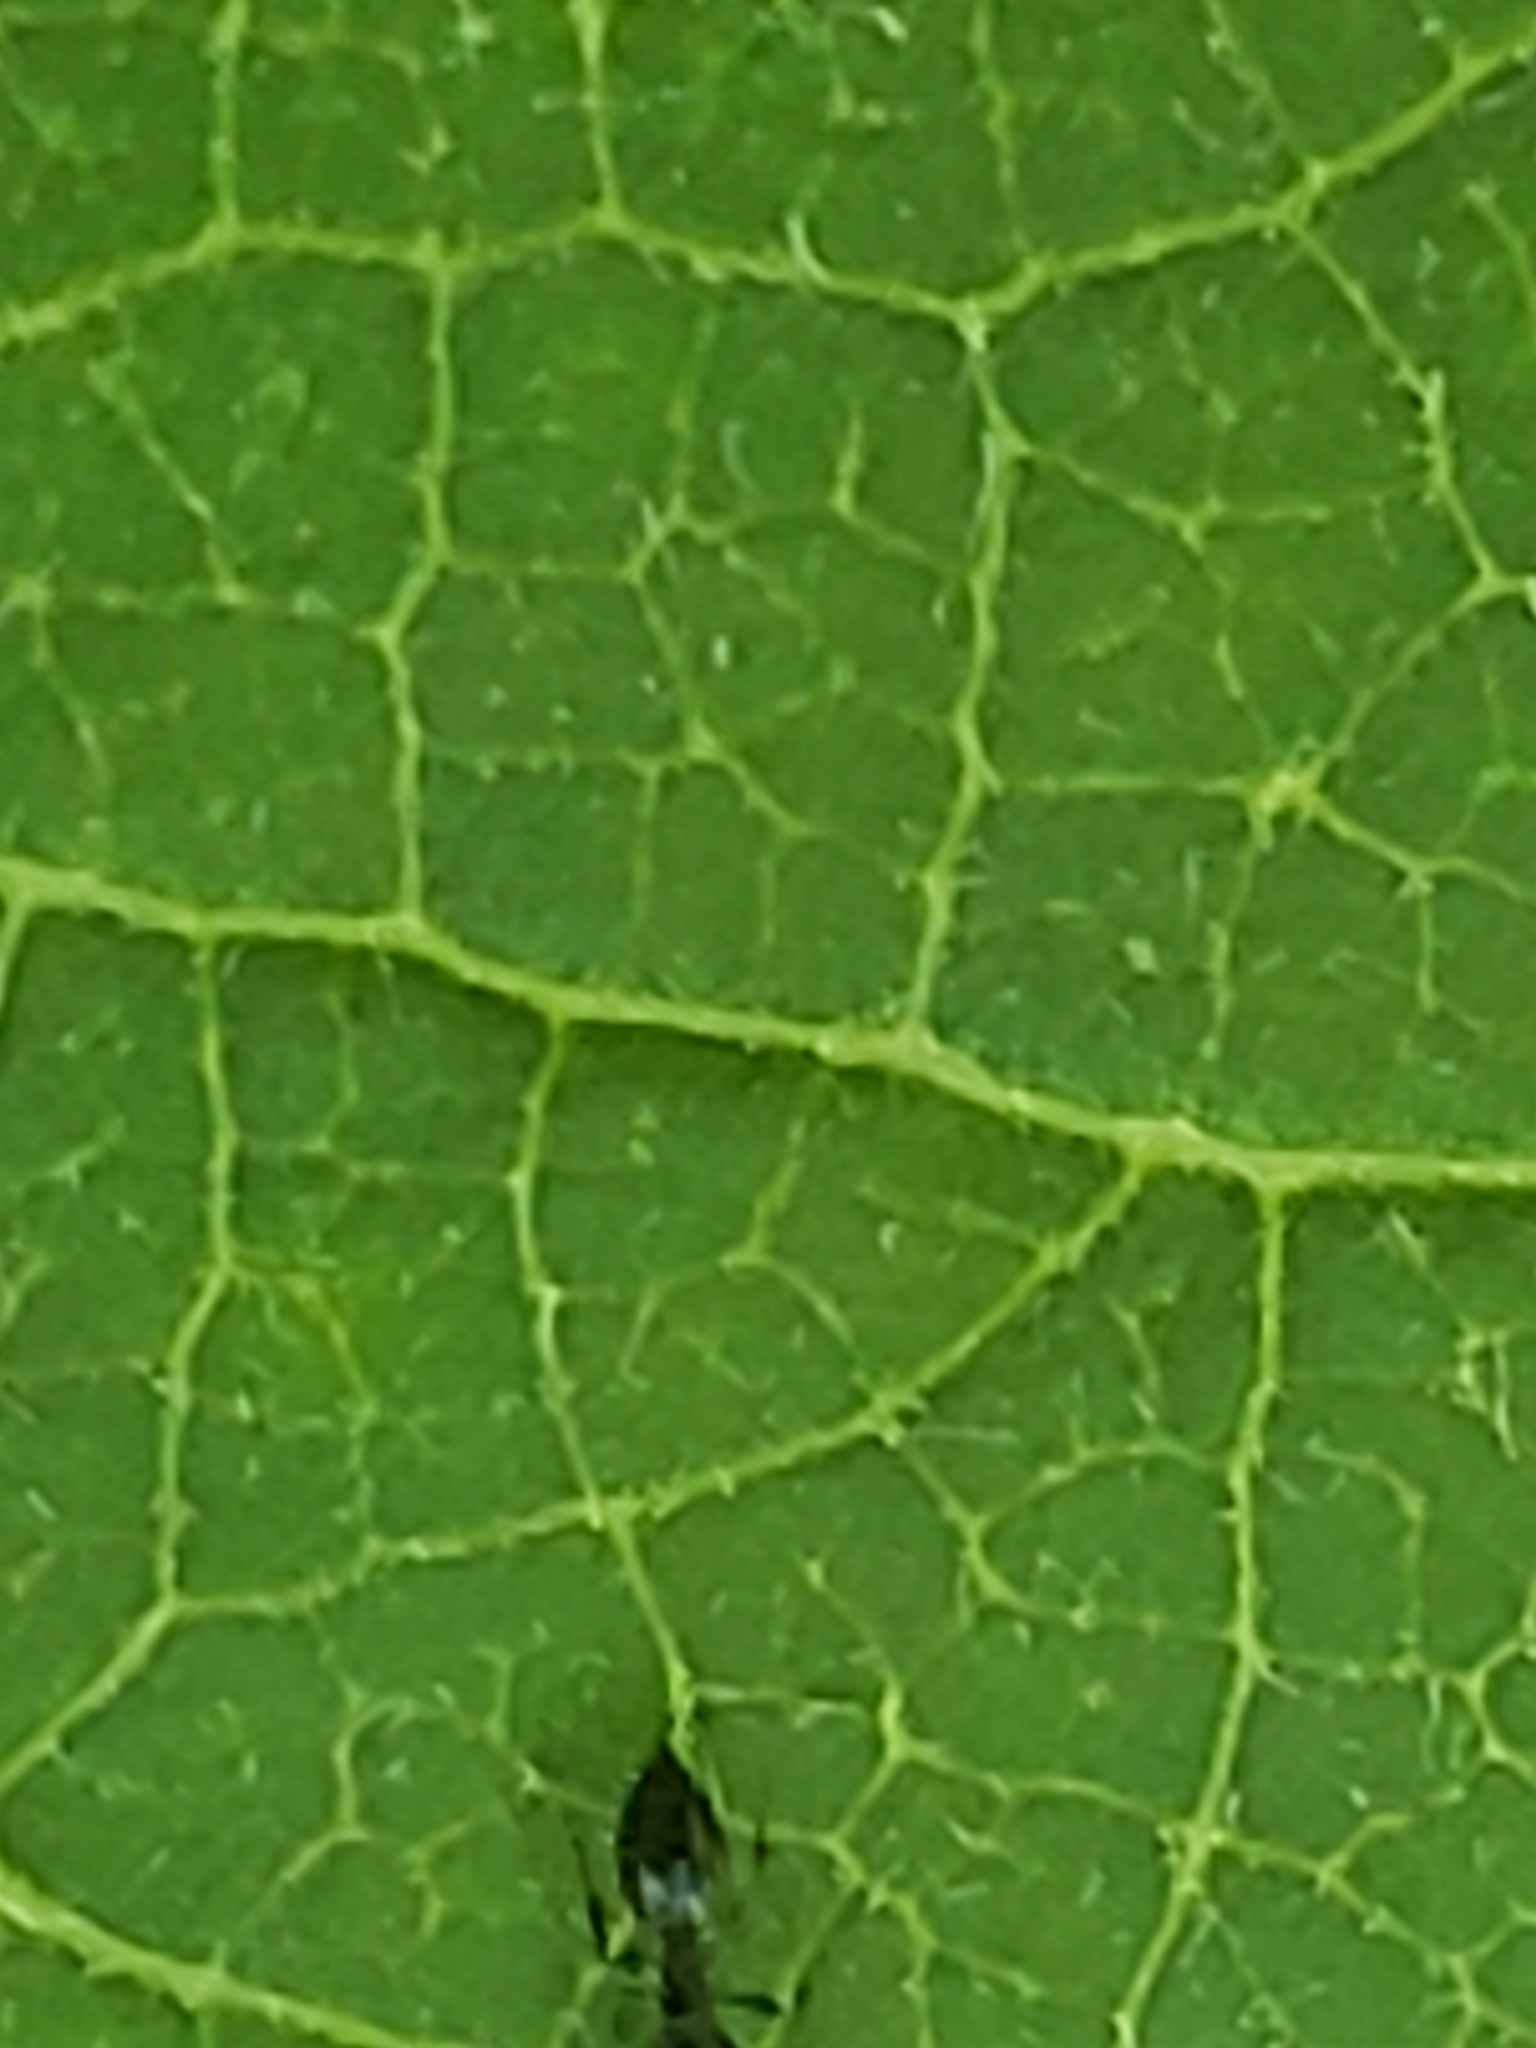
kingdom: Animalia
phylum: Arthropoda
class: Insecta
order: Hymenoptera
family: Formicidae
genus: Monomorium
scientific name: Monomorium minimum
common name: Little black ant
